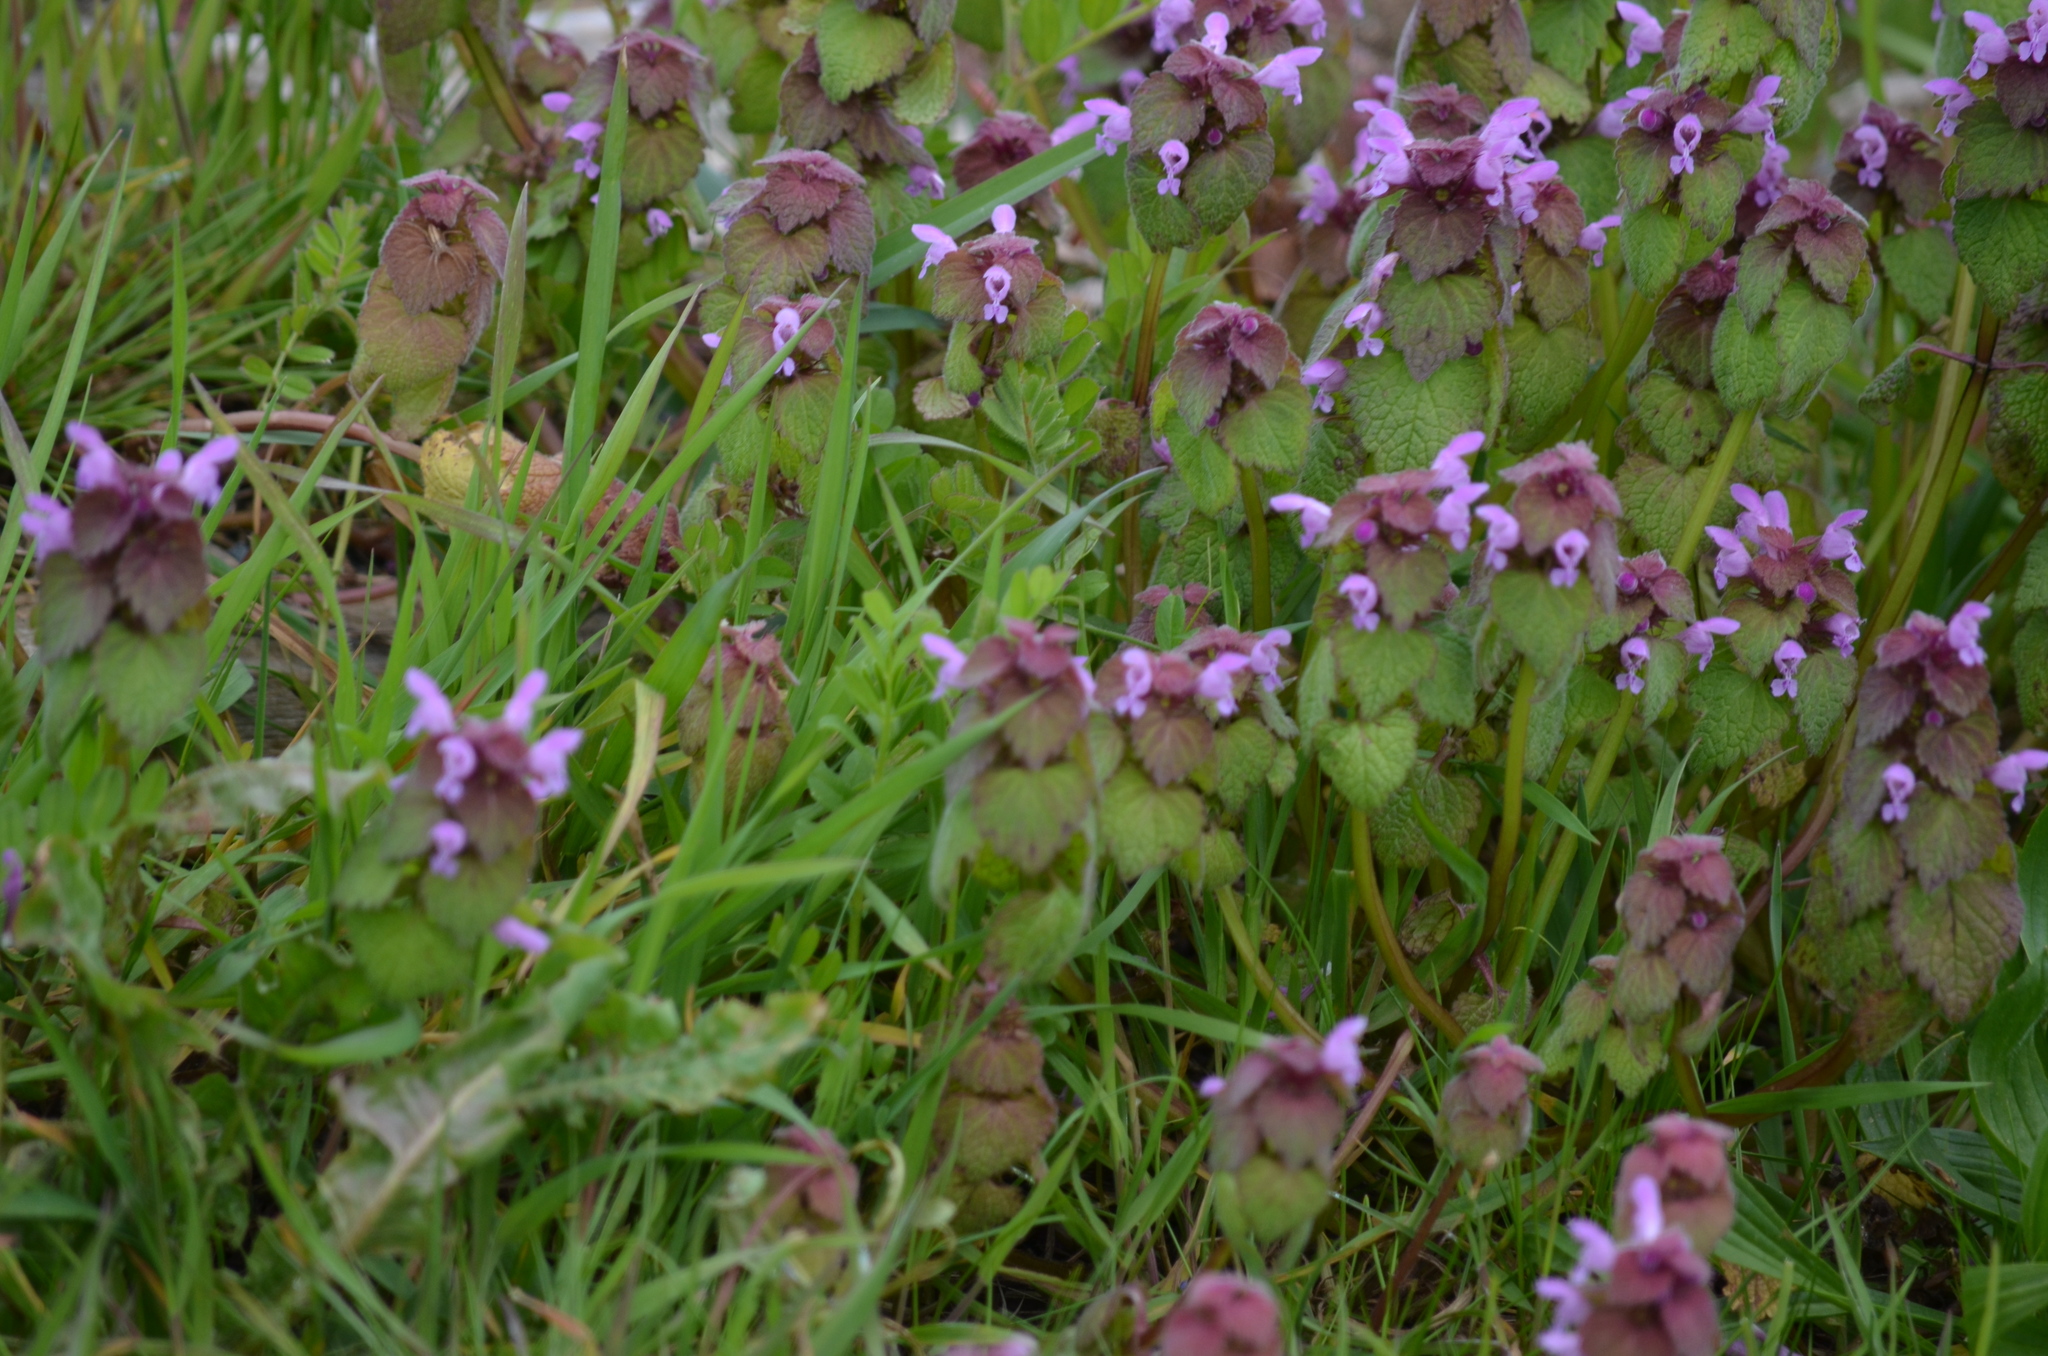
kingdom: Plantae
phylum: Tracheophyta
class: Magnoliopsida
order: Lamiales
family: Lamiaceae
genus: Lamium
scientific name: Lamium purpureum
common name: Red dead-nettle
